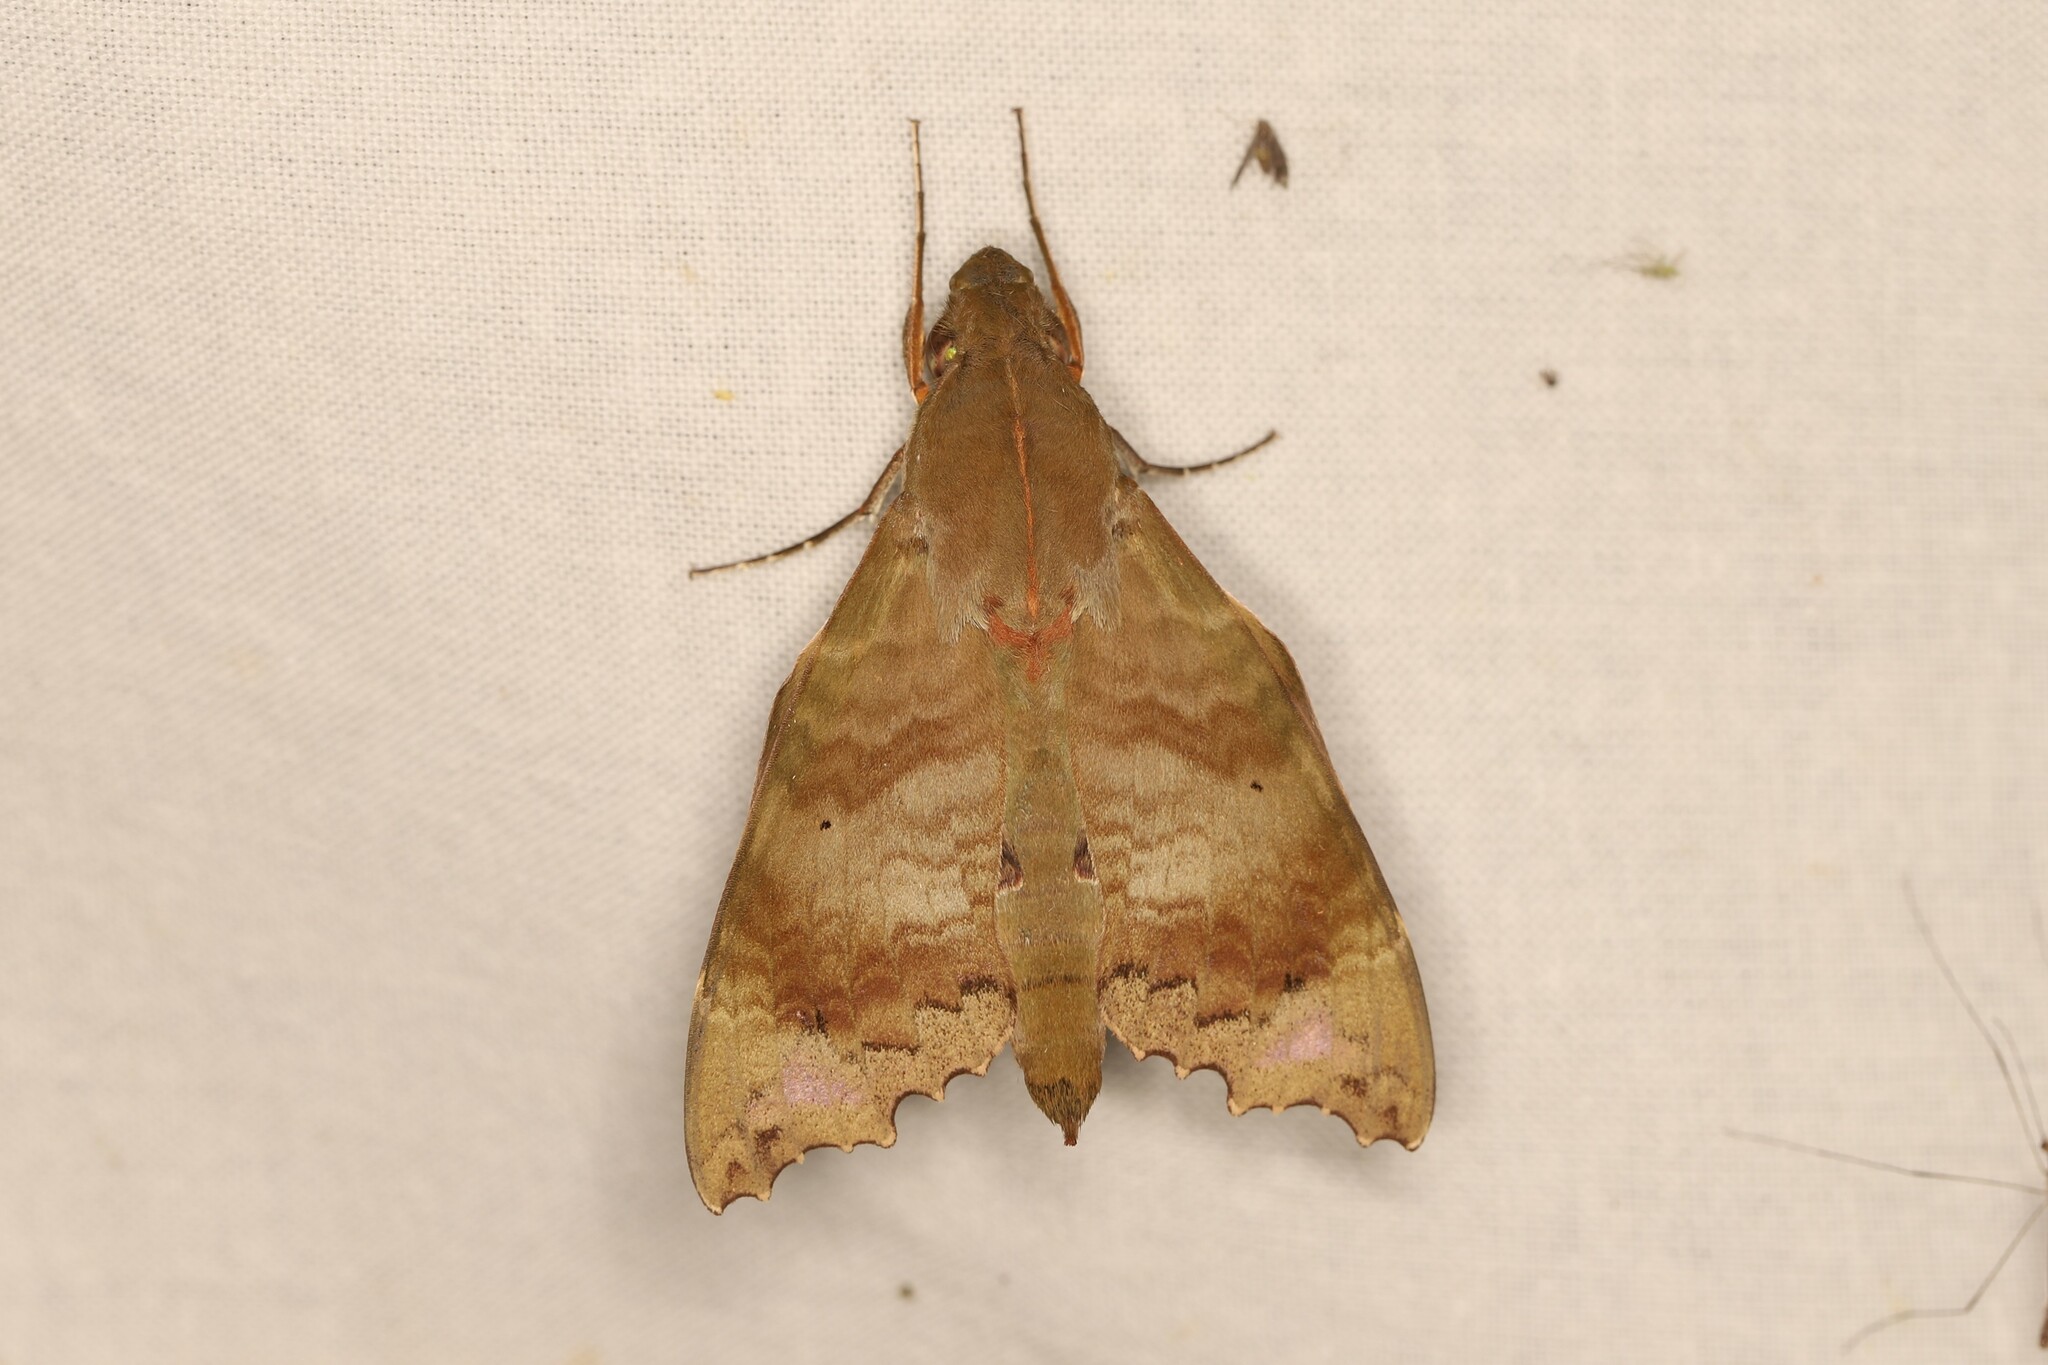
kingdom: Animalia
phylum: Arthropoda
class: Insecta
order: Lepidoptera
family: Sphingidae
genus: Aleuron
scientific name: Aleuron chloroptera
